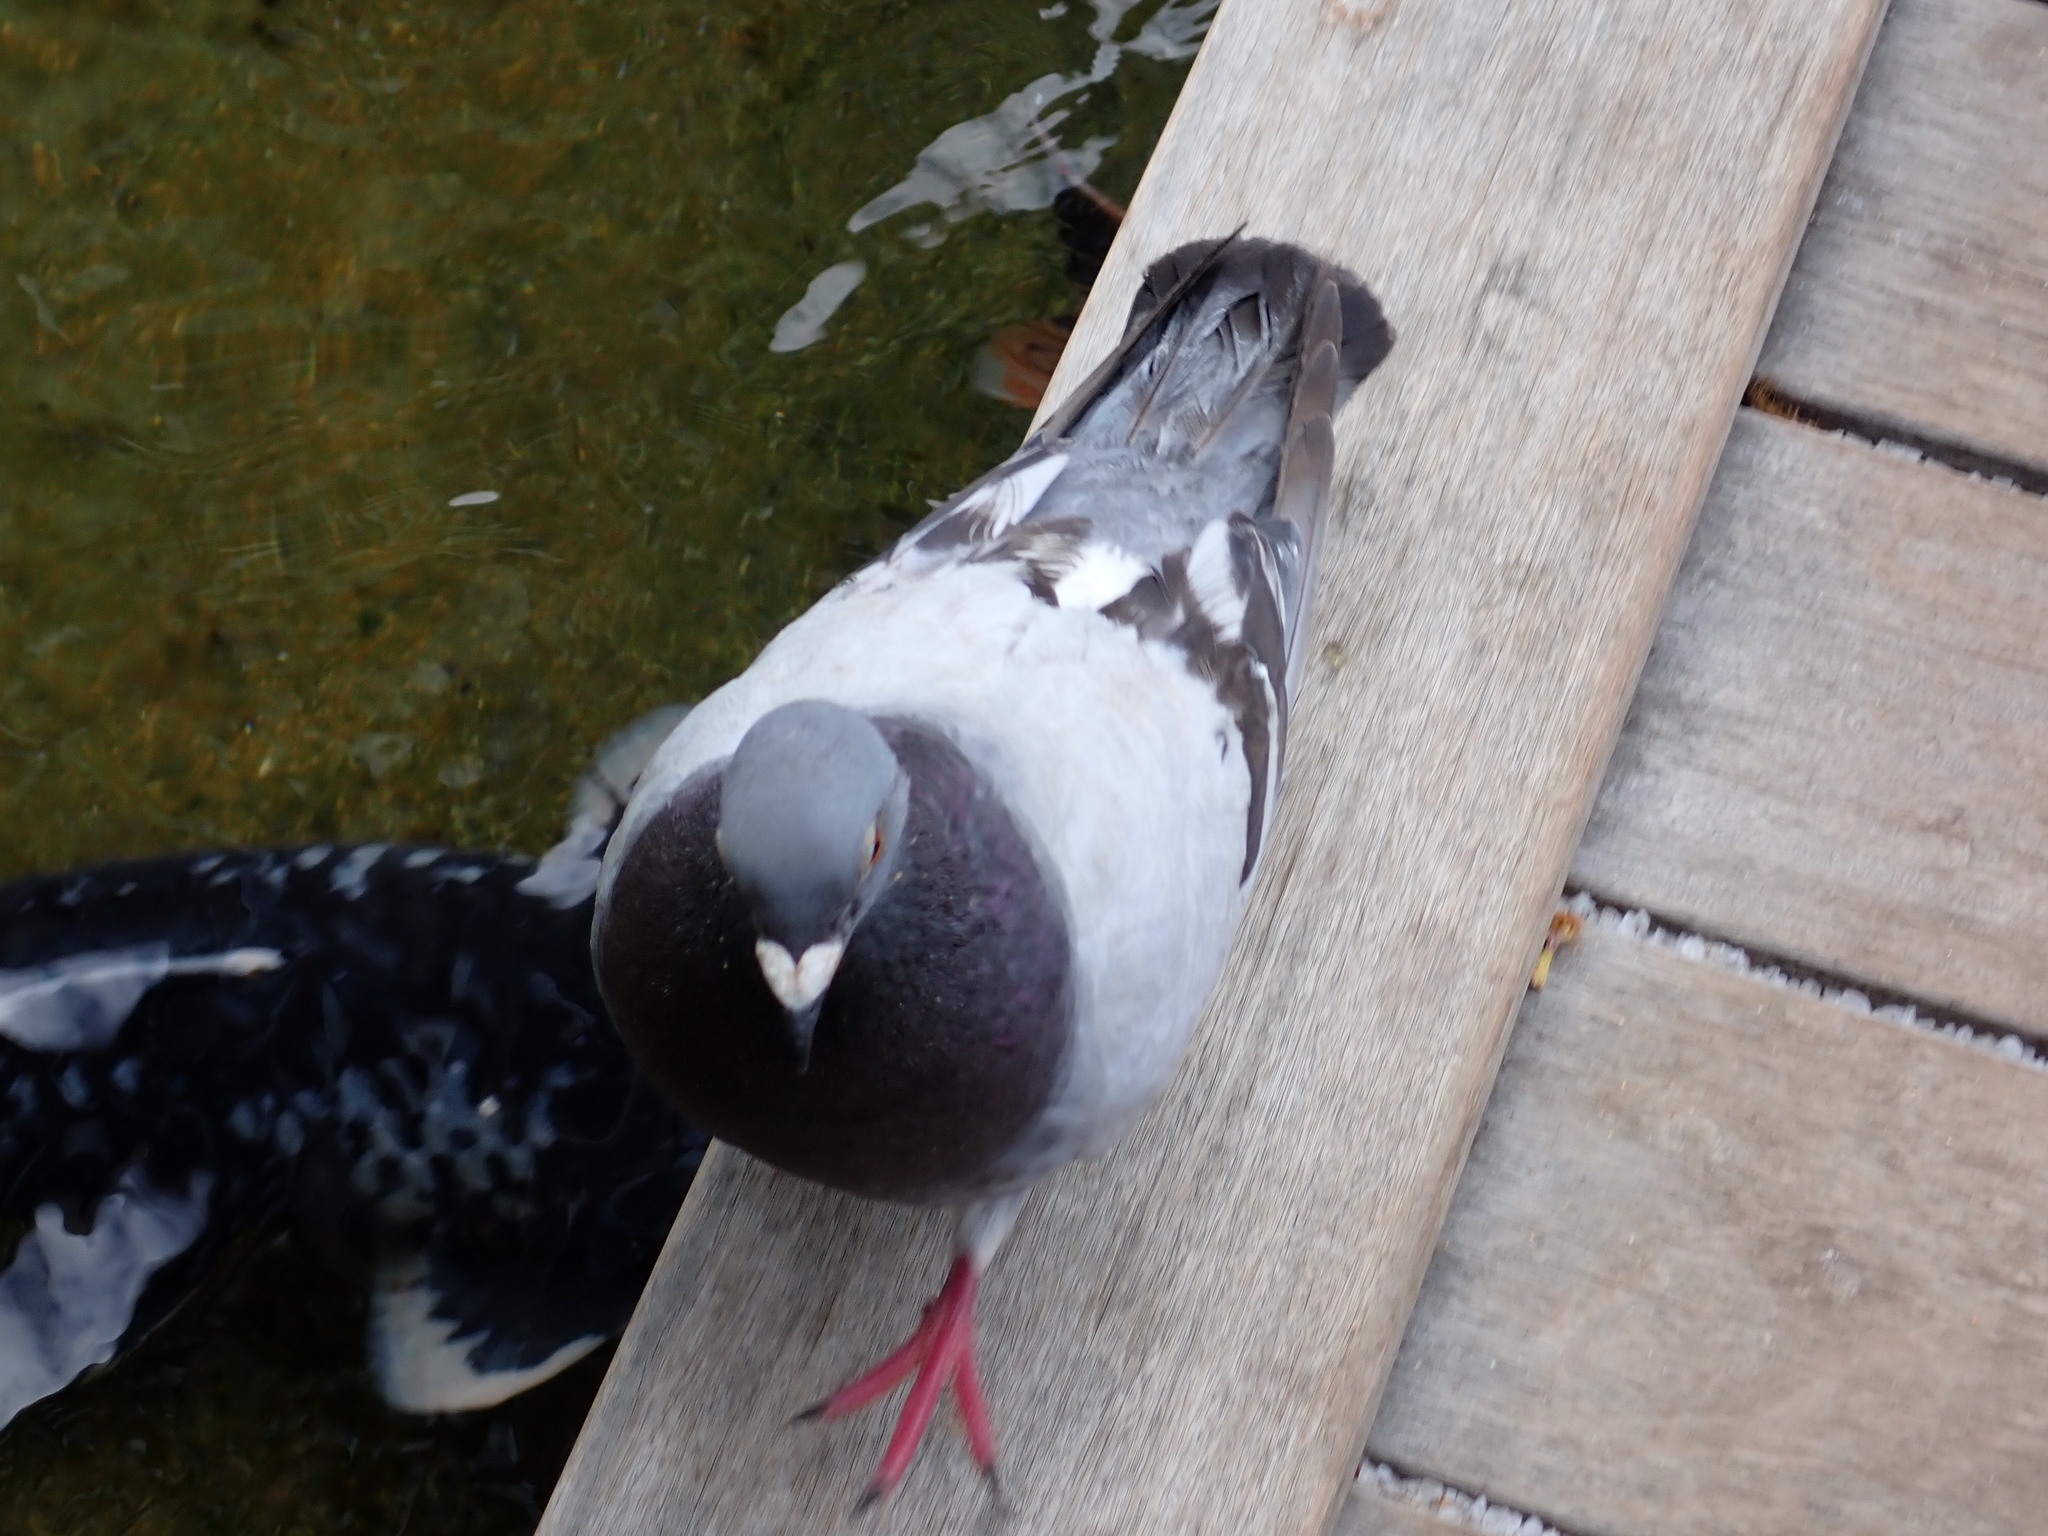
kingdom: Animalia
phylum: Chordata
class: Aves
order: Columbiformes
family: Columbidae
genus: Columba
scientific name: Columba livia
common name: Rock pigeon
